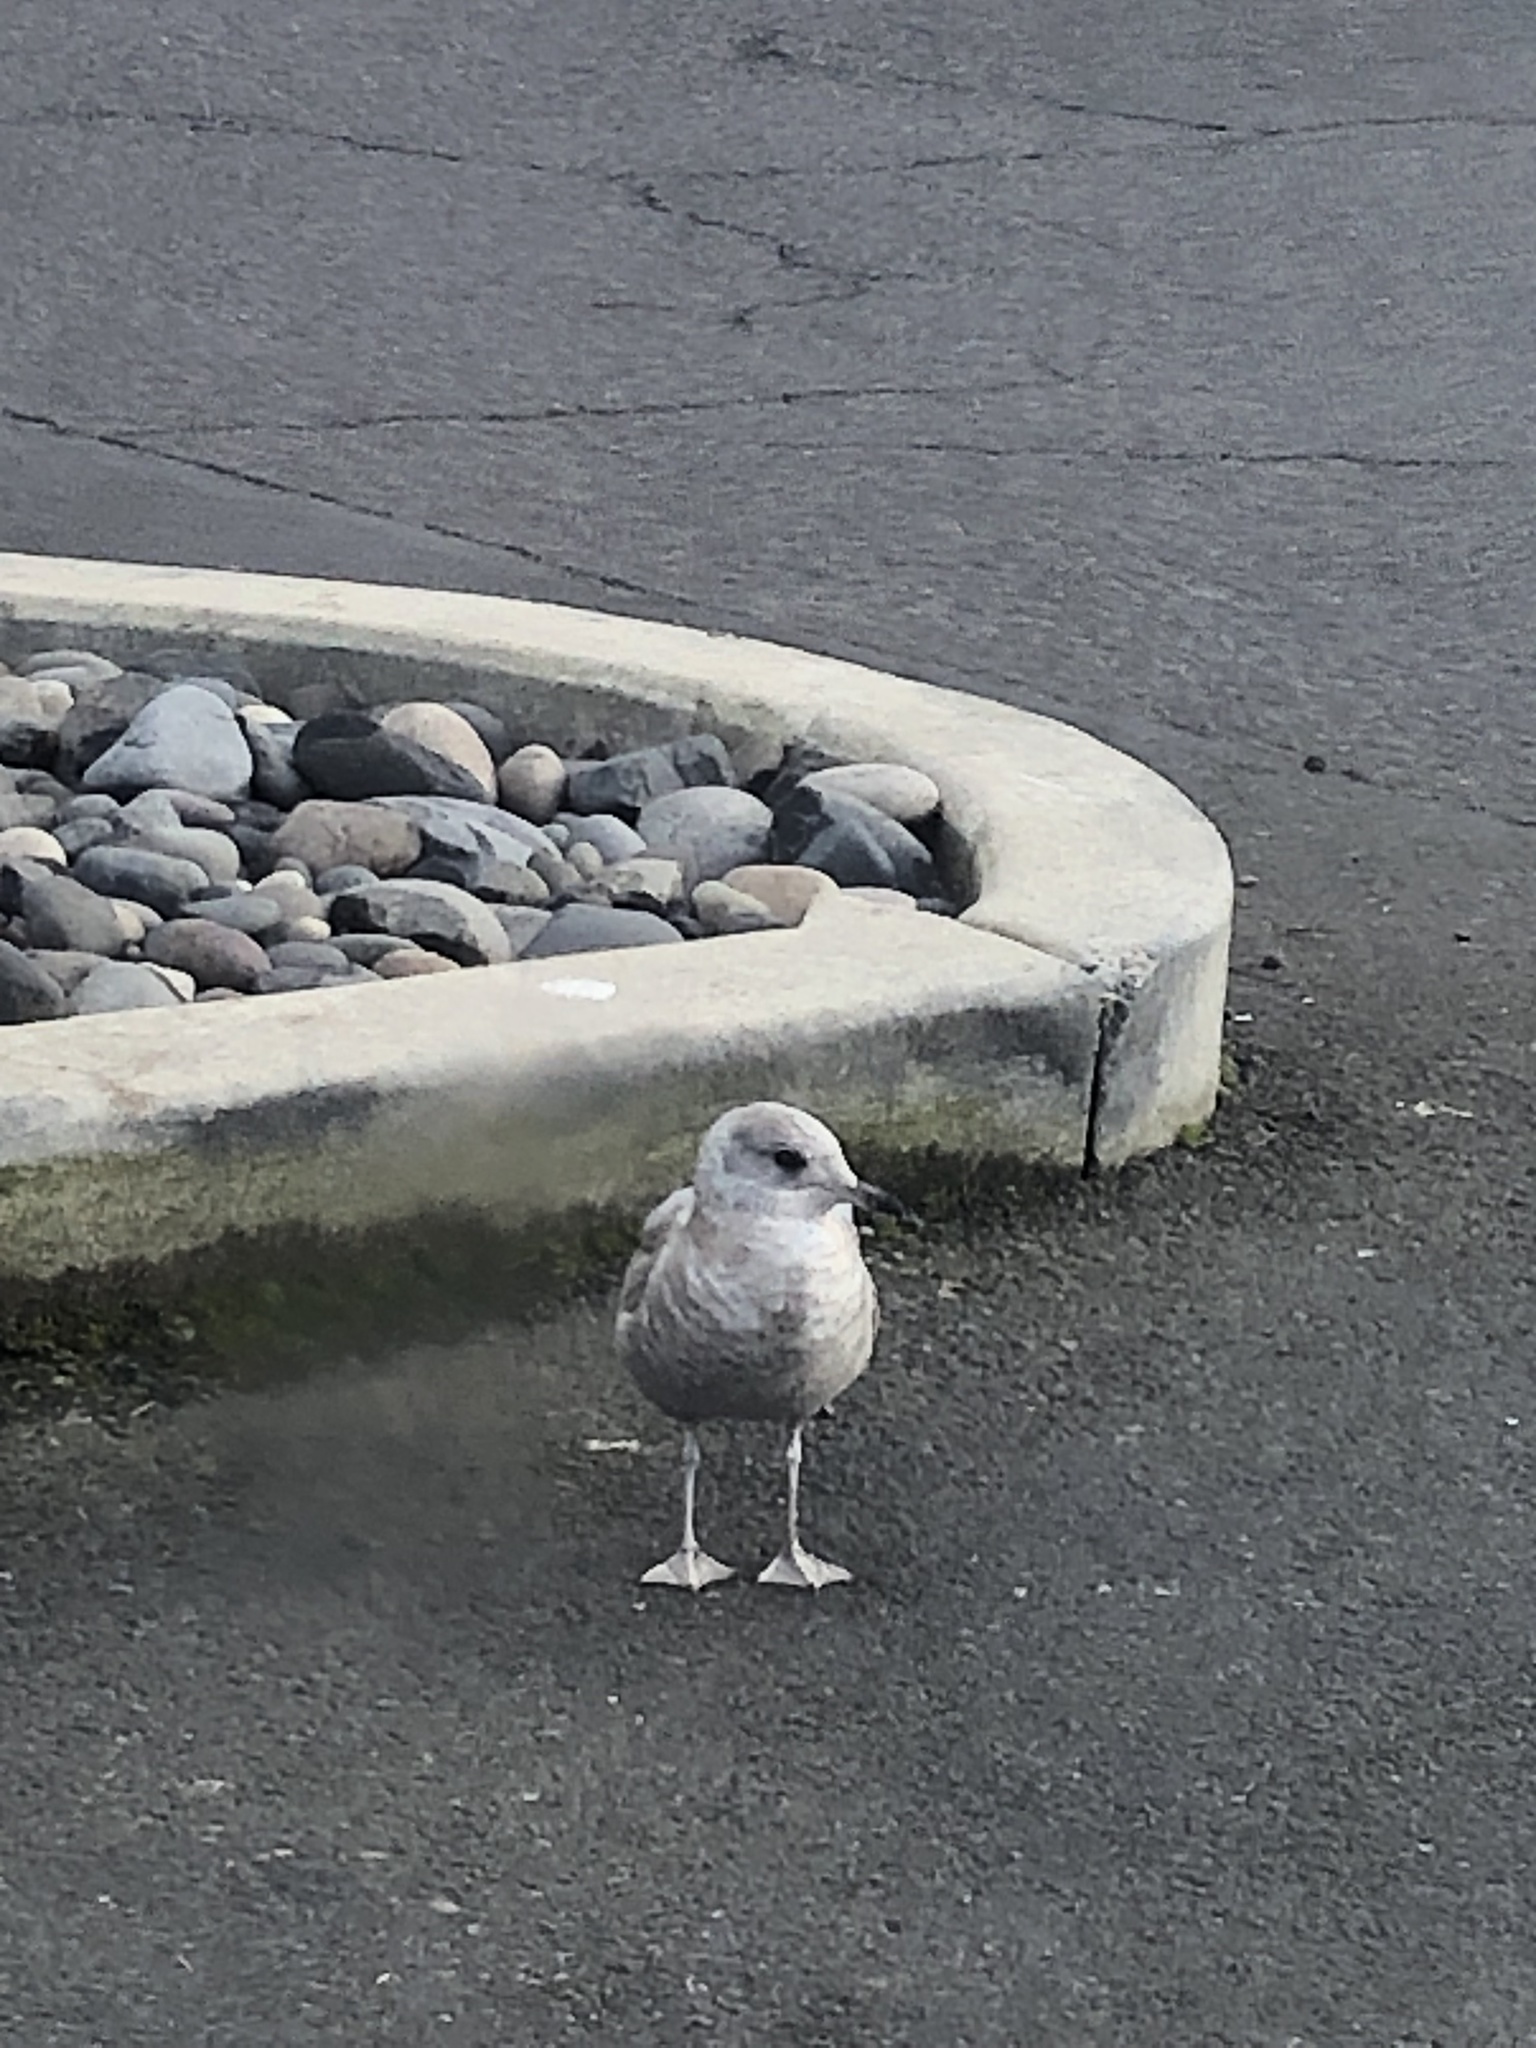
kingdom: Animalia
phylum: Chordata
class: Aves
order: Charadriiformes
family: Laridae
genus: Larus
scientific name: Larus brachyrhynchus
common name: Short-billed gull
